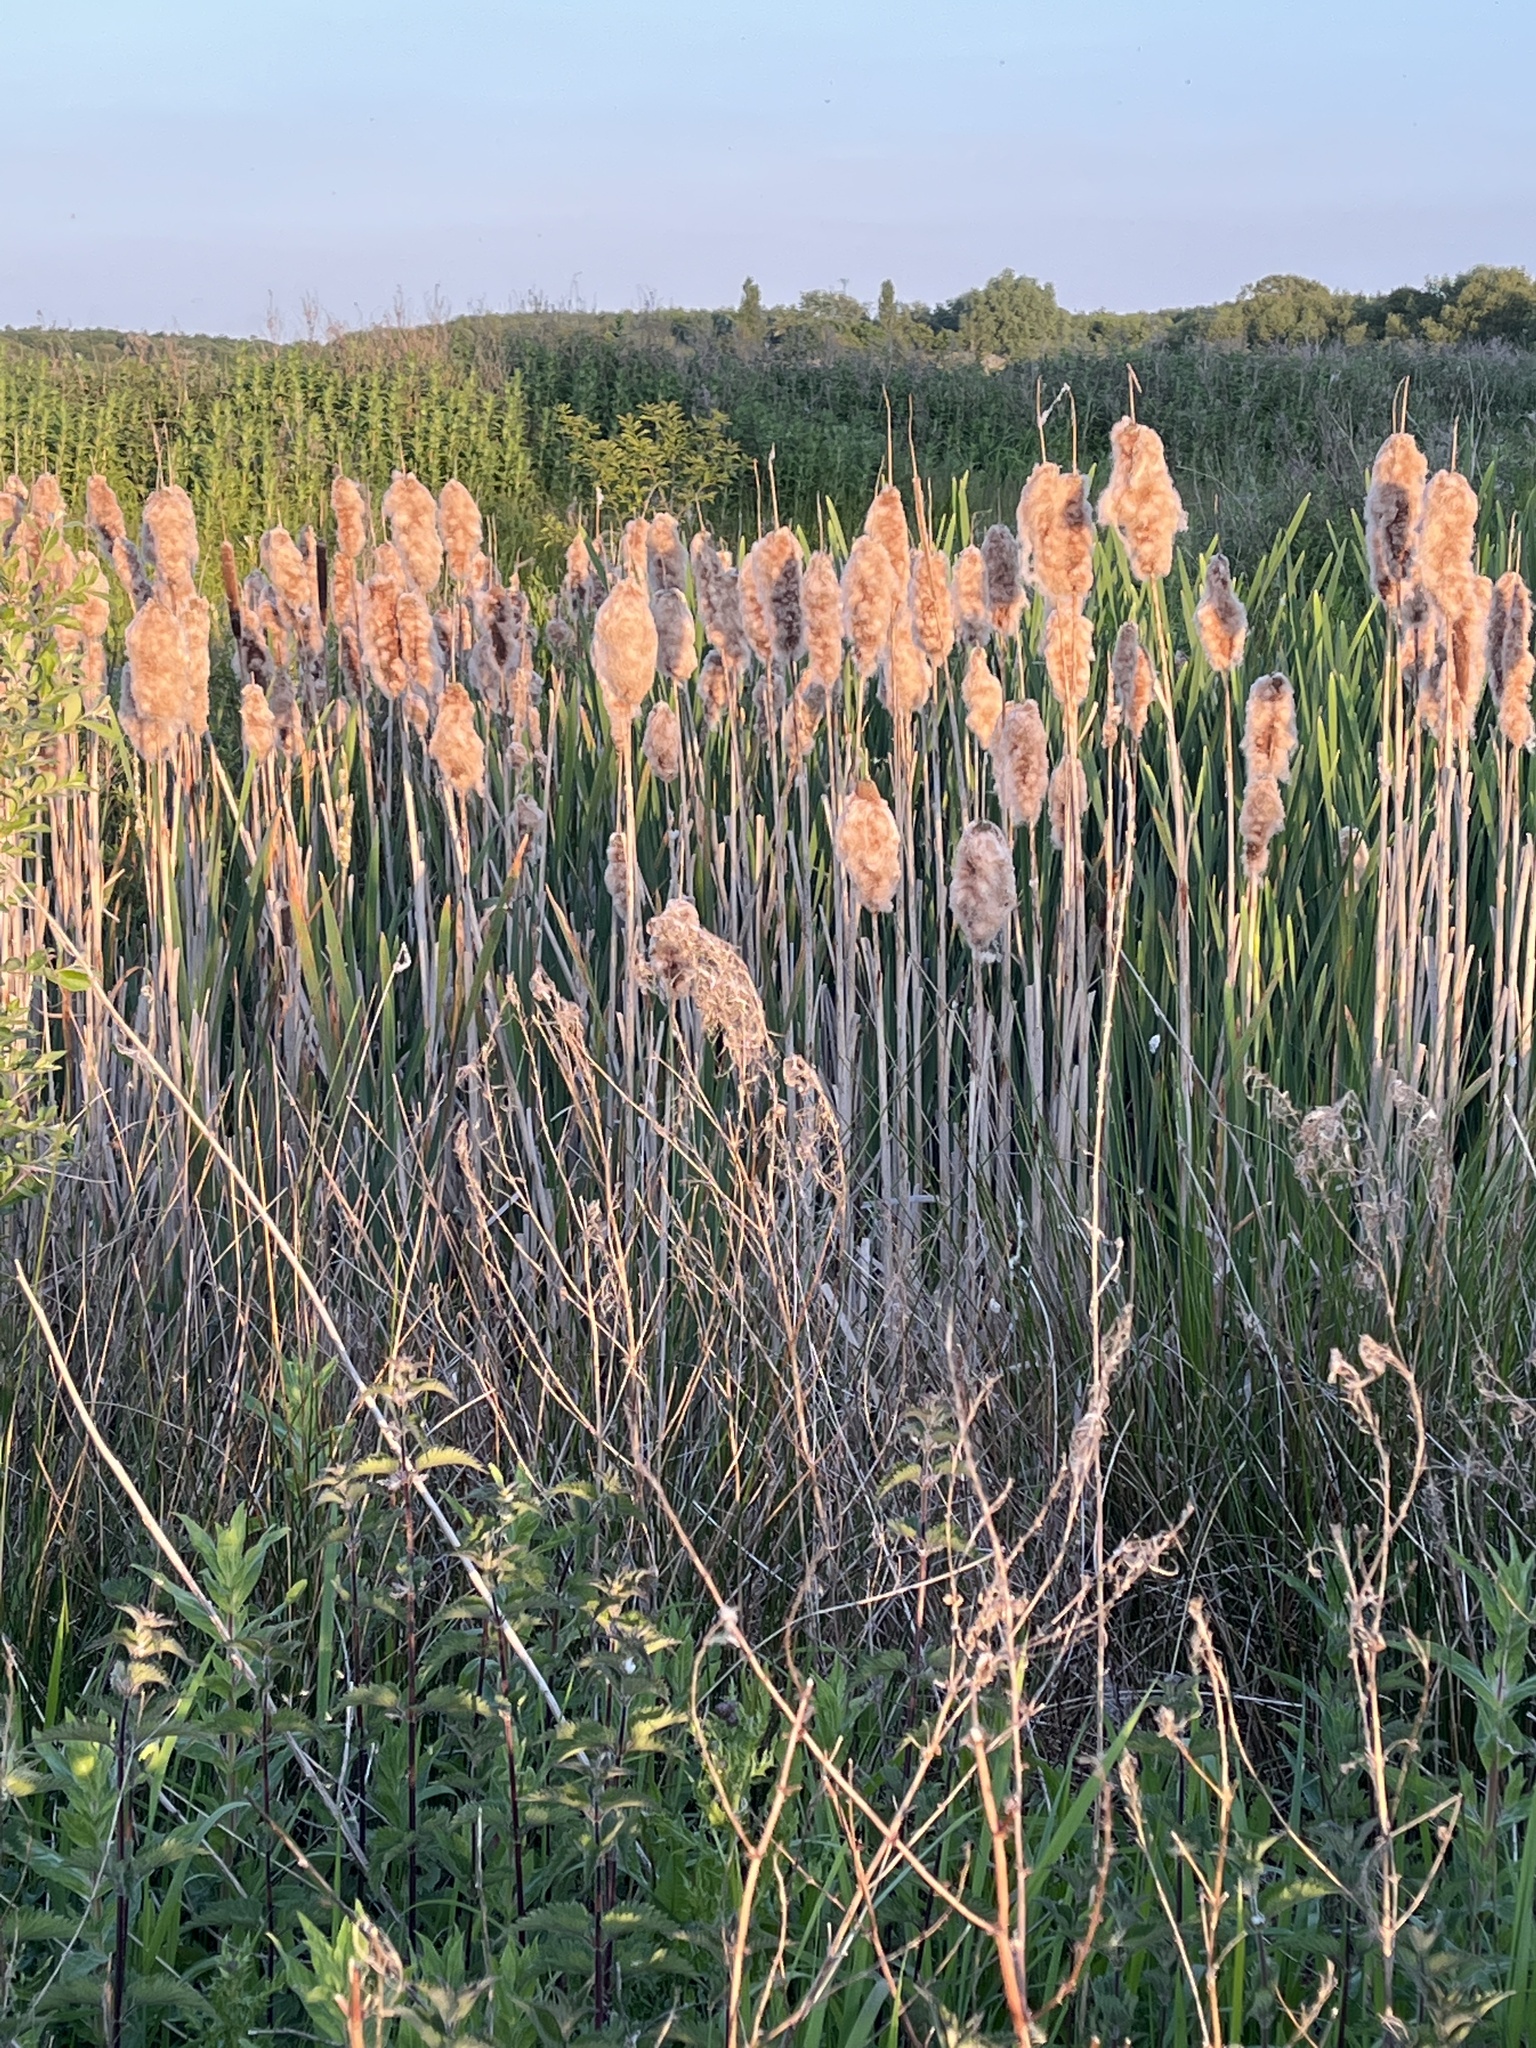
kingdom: Plantae
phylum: Tracheophyta
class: Liliopsida
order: Poales
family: Typhaceae
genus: Typha
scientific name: Typha latifolia
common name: Broadleaf cattail
